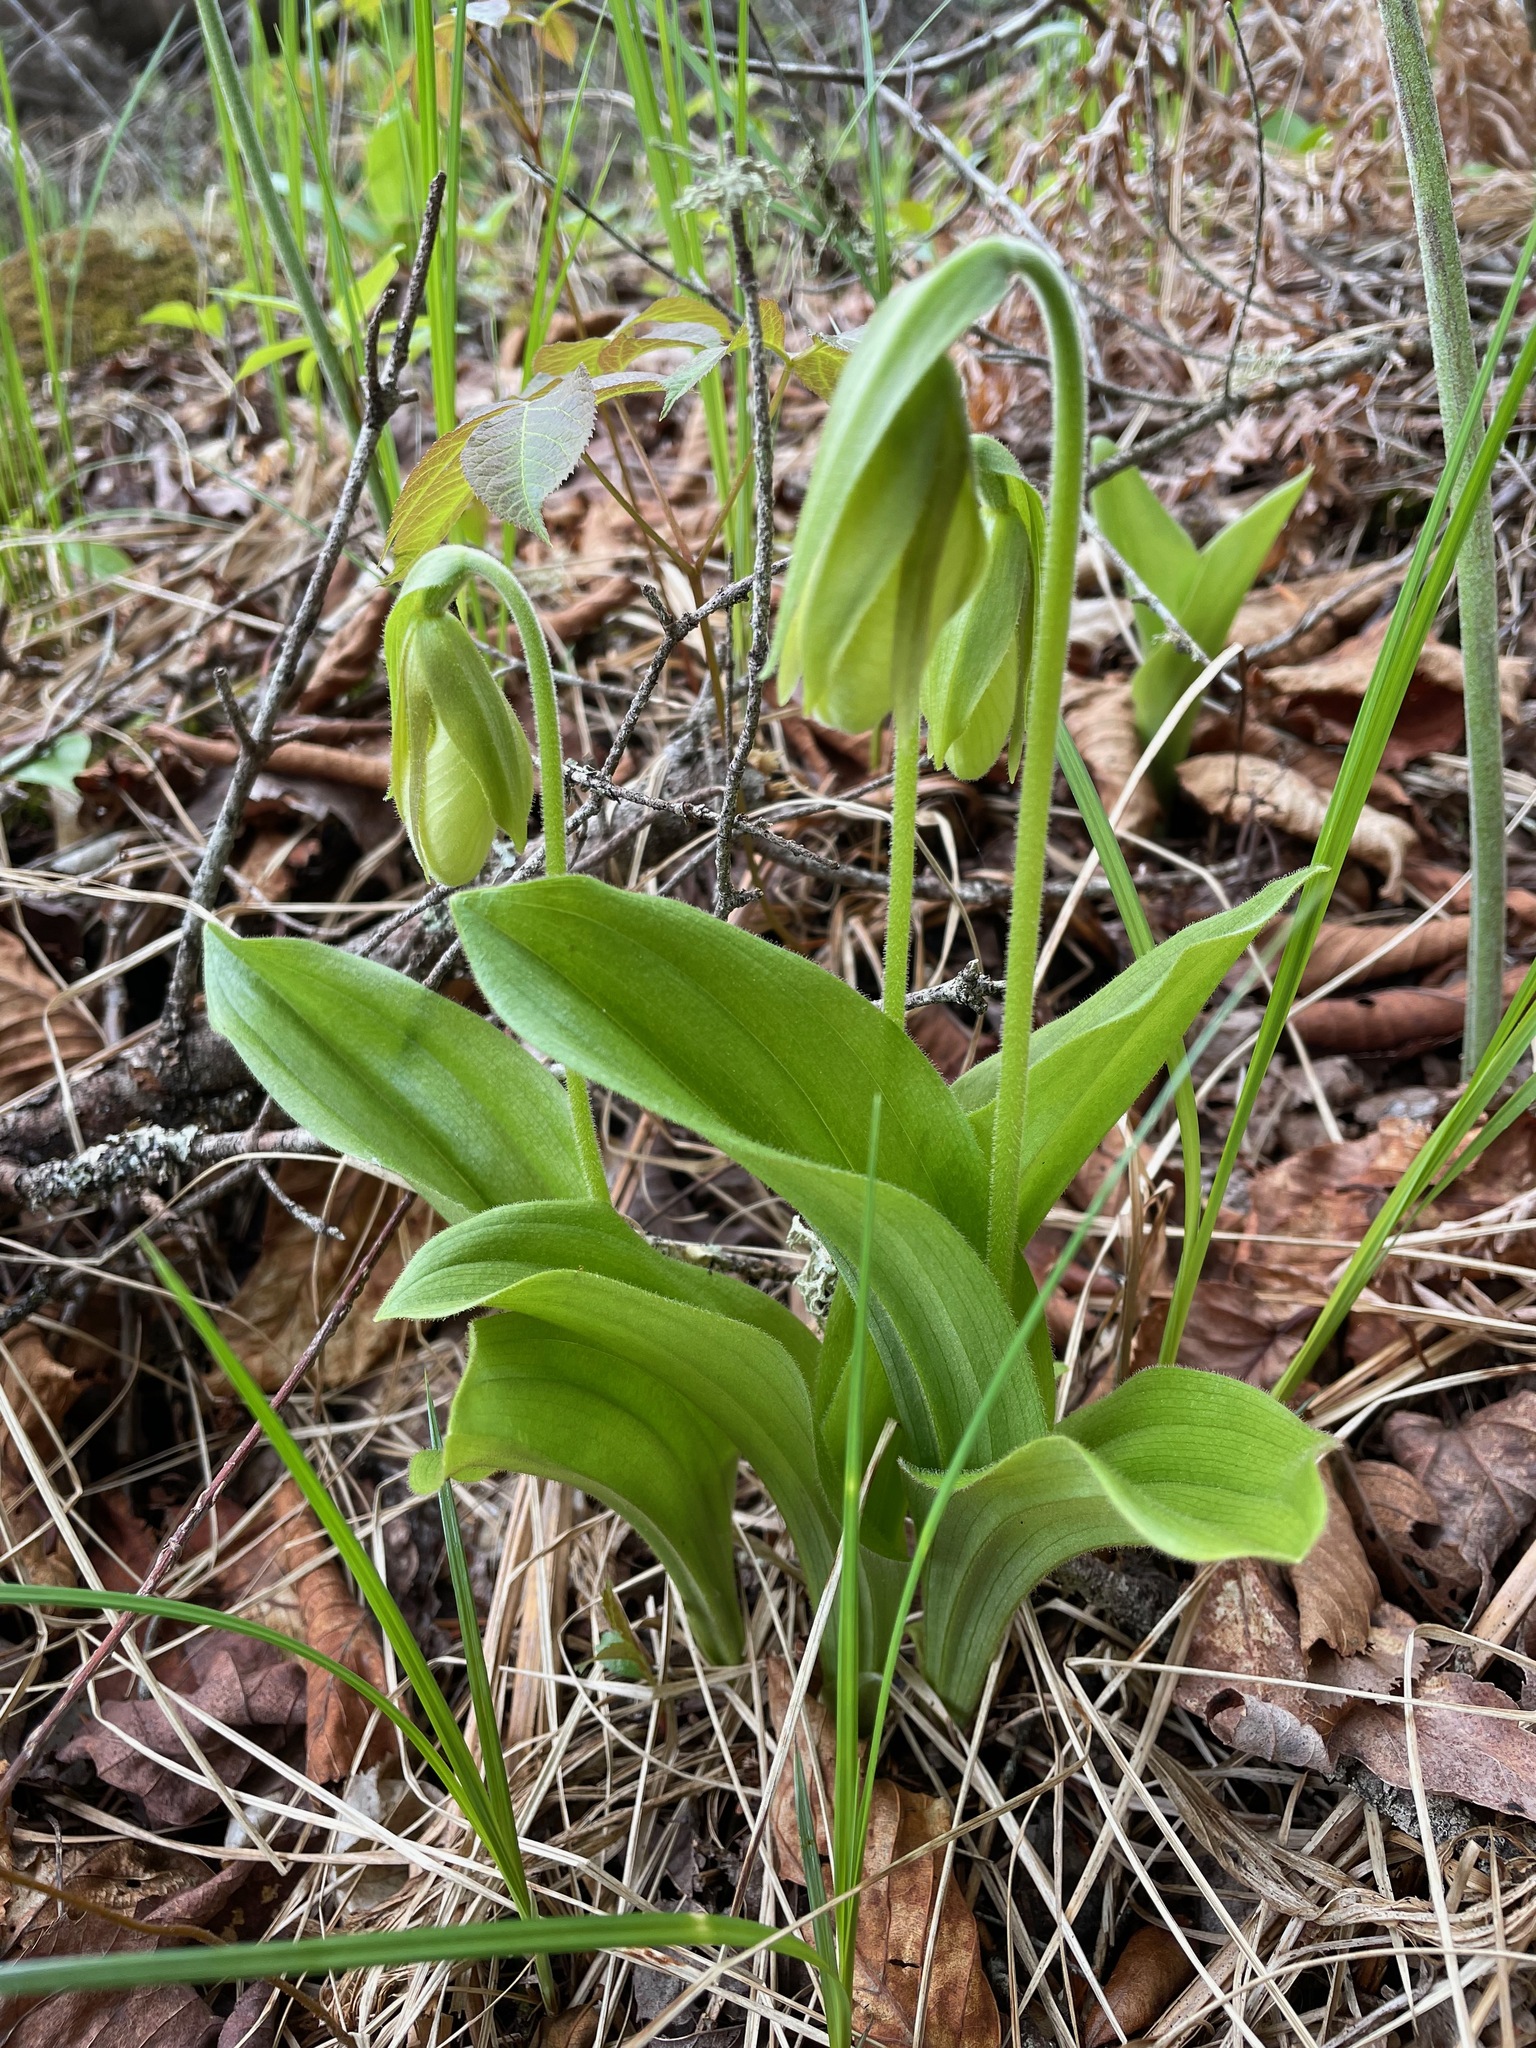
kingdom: Plantae
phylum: Tracheophyta
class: Liliopsida
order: Asparagales
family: Orchidaceae
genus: Cypripedium
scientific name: Cypripedium acaule
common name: Pink lady's-slipper
